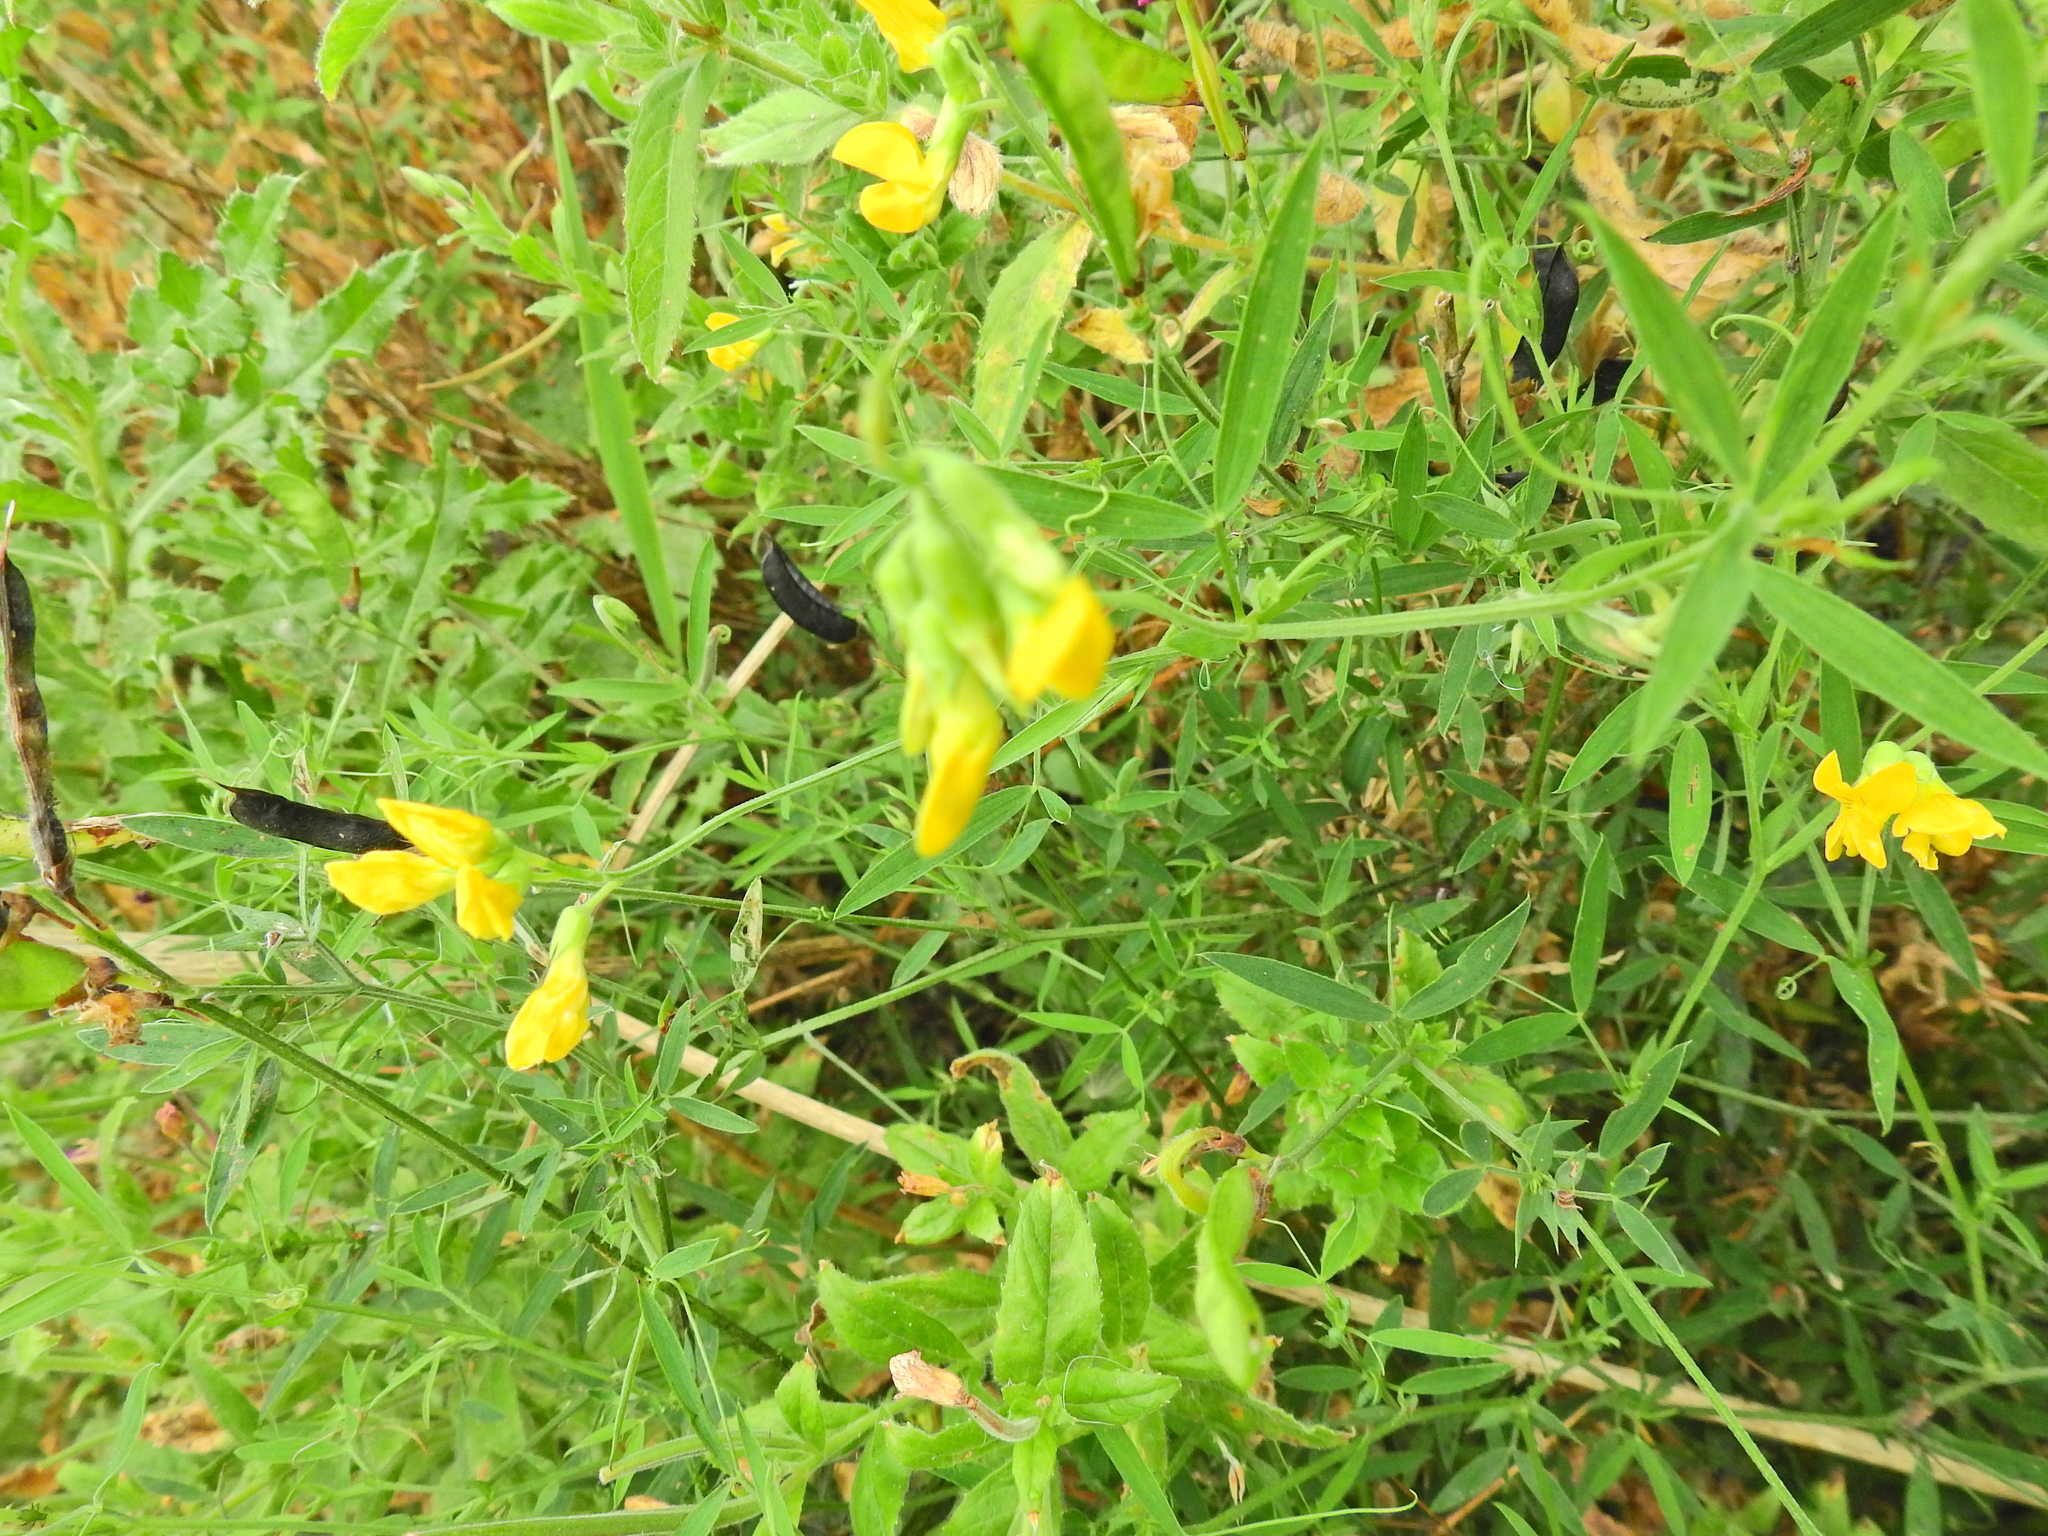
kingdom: Plantae
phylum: Tracheophyta
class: Magnoliopsida
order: Fabales
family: Fabaceae
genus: Lathyrus
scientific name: Lathyrus pratensis
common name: Meadow vetchling
